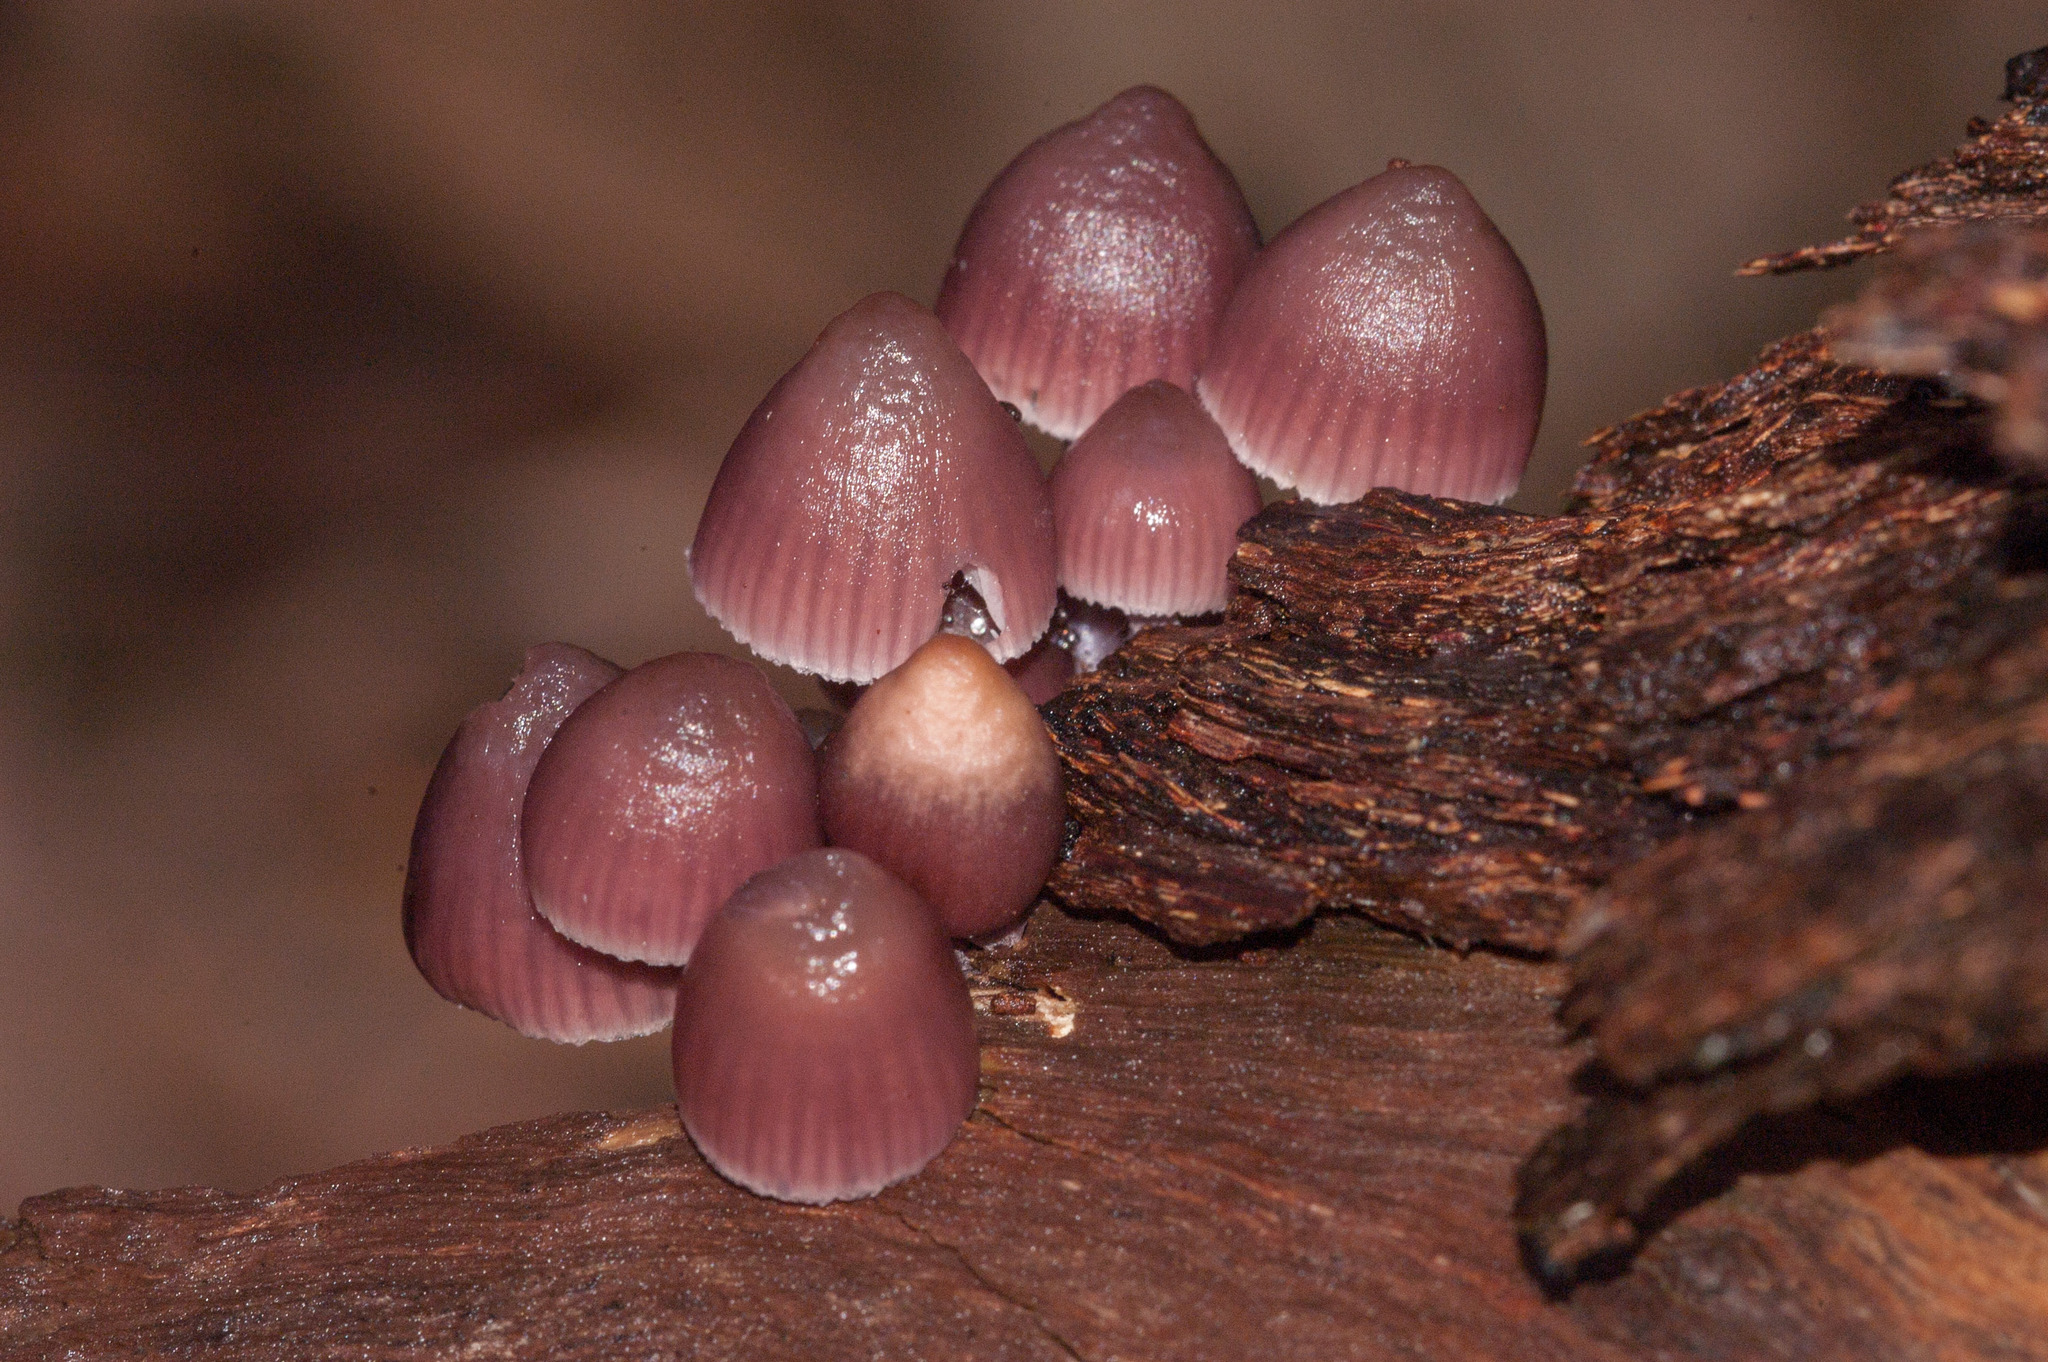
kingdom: Fungi
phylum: Basidiomycota
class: Agaricomycetes
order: Agaricales
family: Mycenaceae
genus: Mycena
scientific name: Mycena clarkeana
